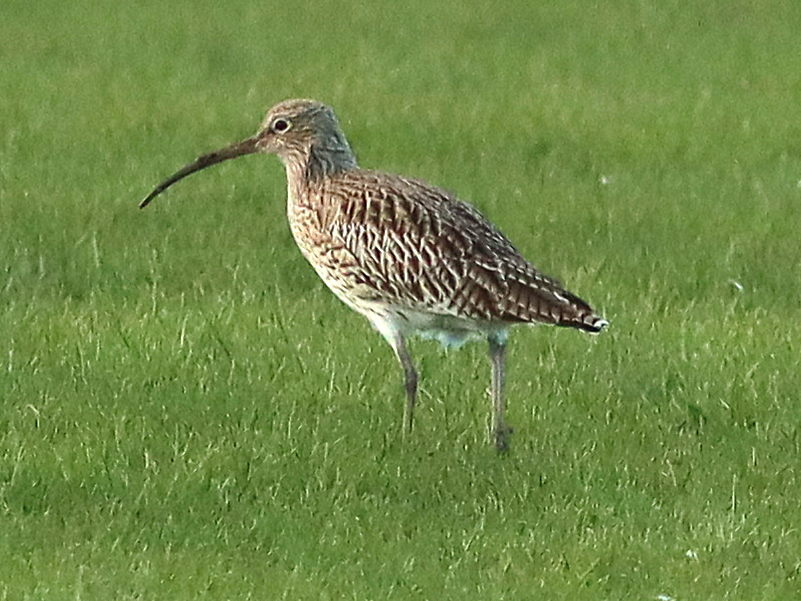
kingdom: Animalia
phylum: Chordata
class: Aves
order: Charadriiformes
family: Scolopacidae
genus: Numenius
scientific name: Numenius arquata
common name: Eurasian curlew
